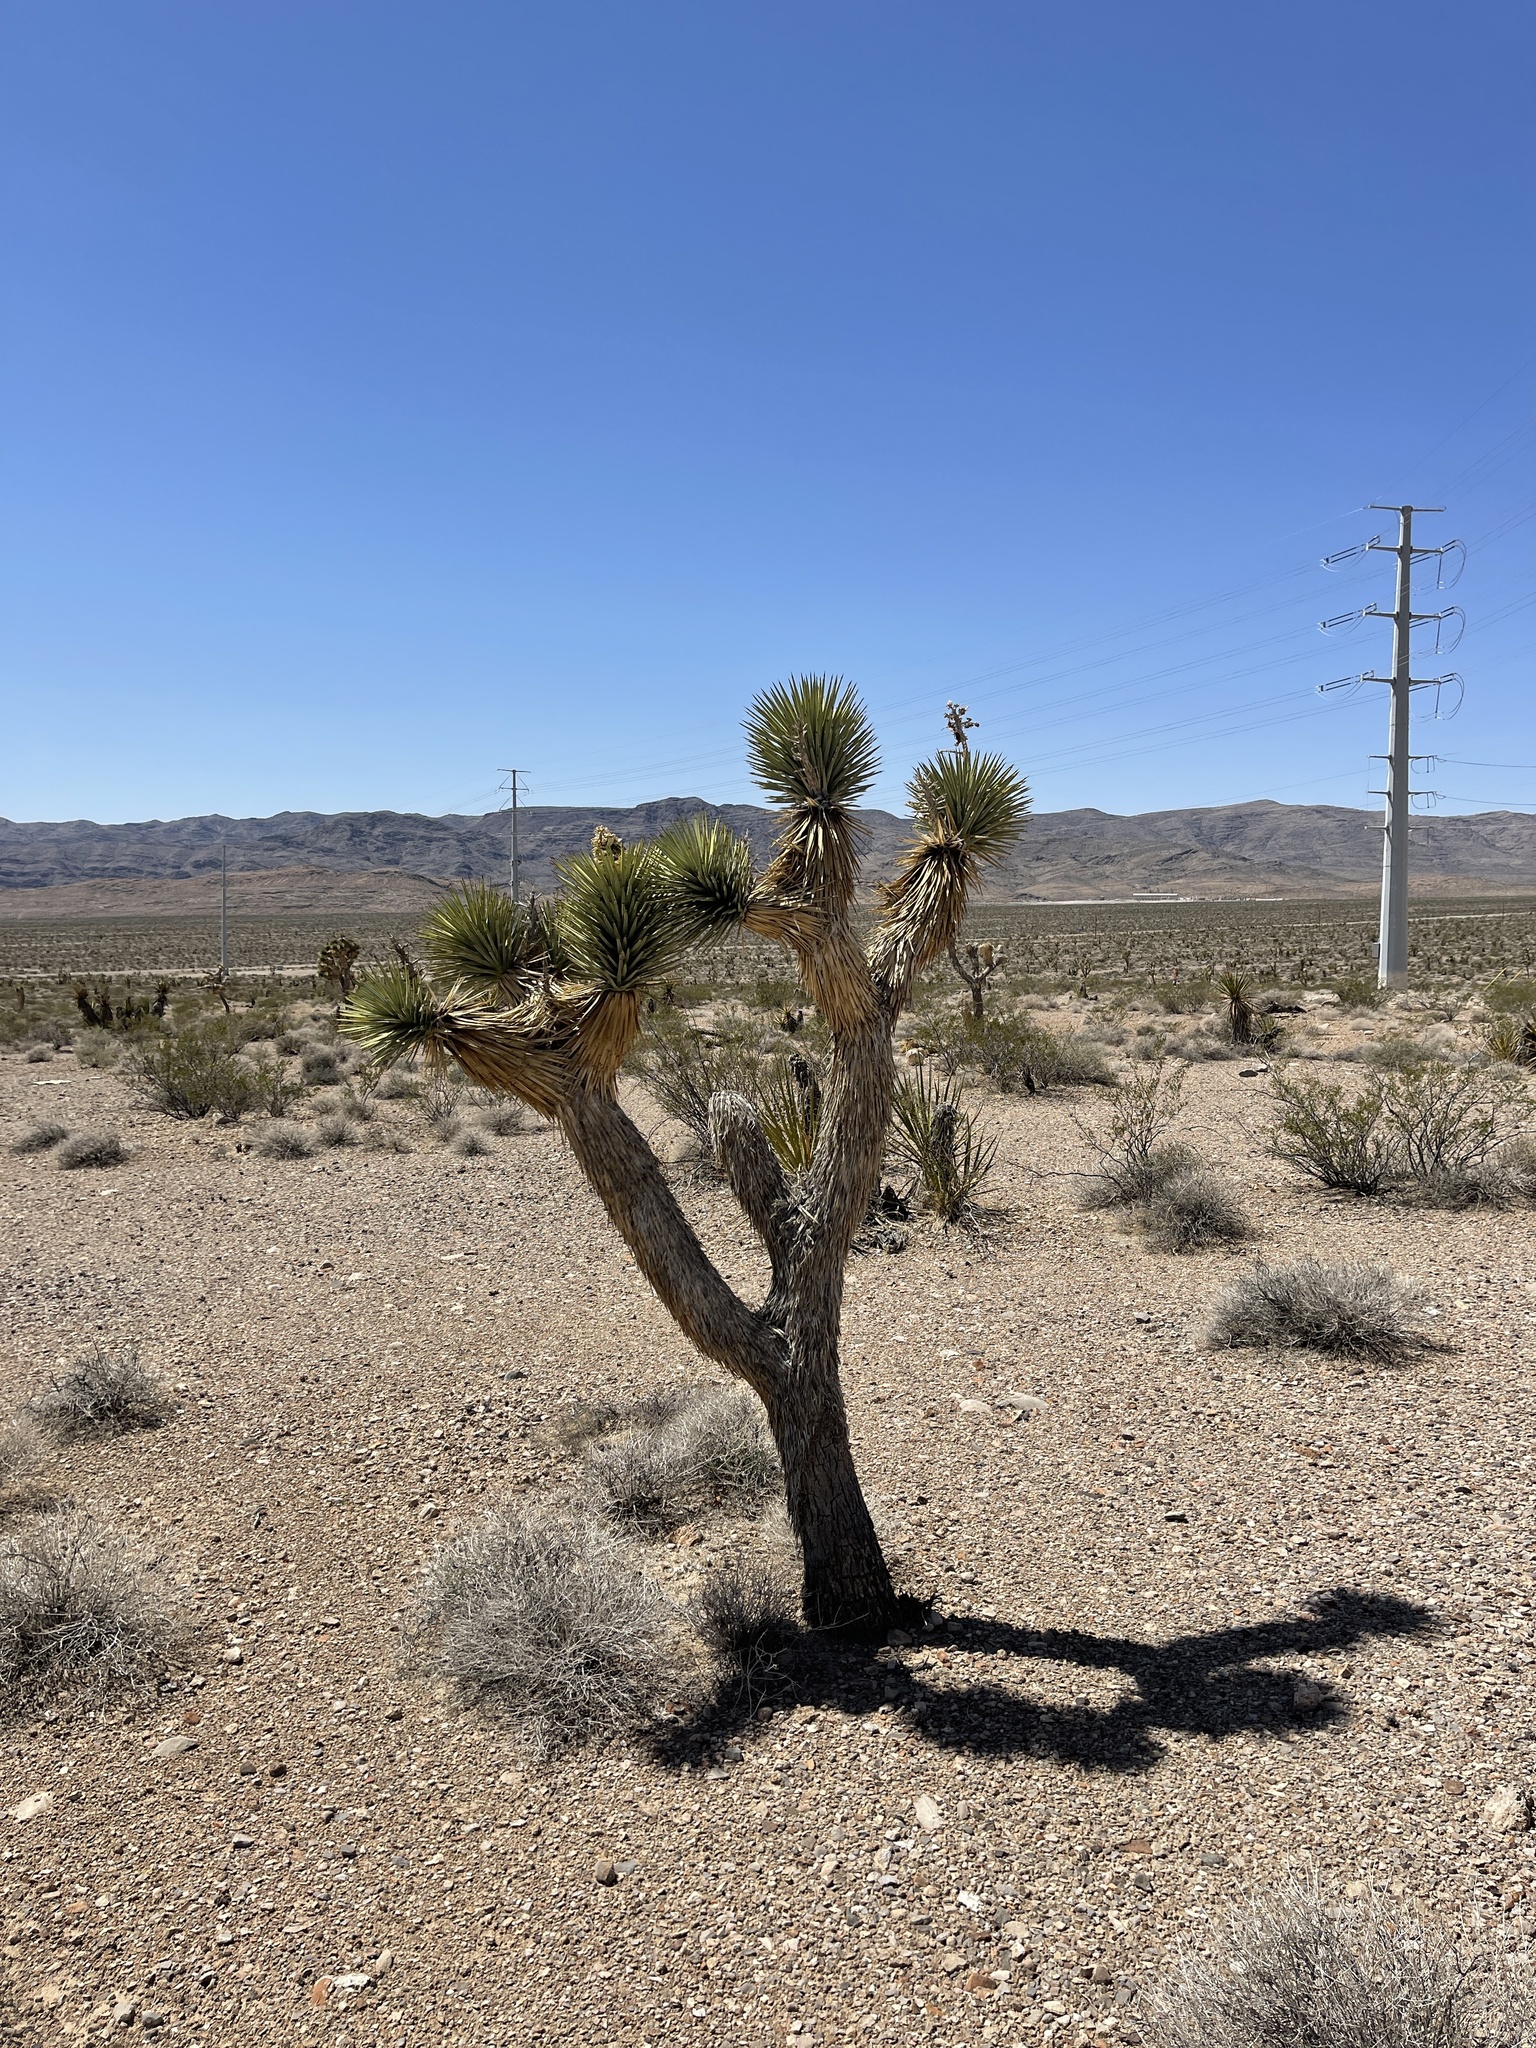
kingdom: Plantae
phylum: Tracheophyta
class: Liliopsida
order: Asparagales
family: Asparagaceae
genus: Yucca
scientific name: Yucca brevifolia
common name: Joshua tree
